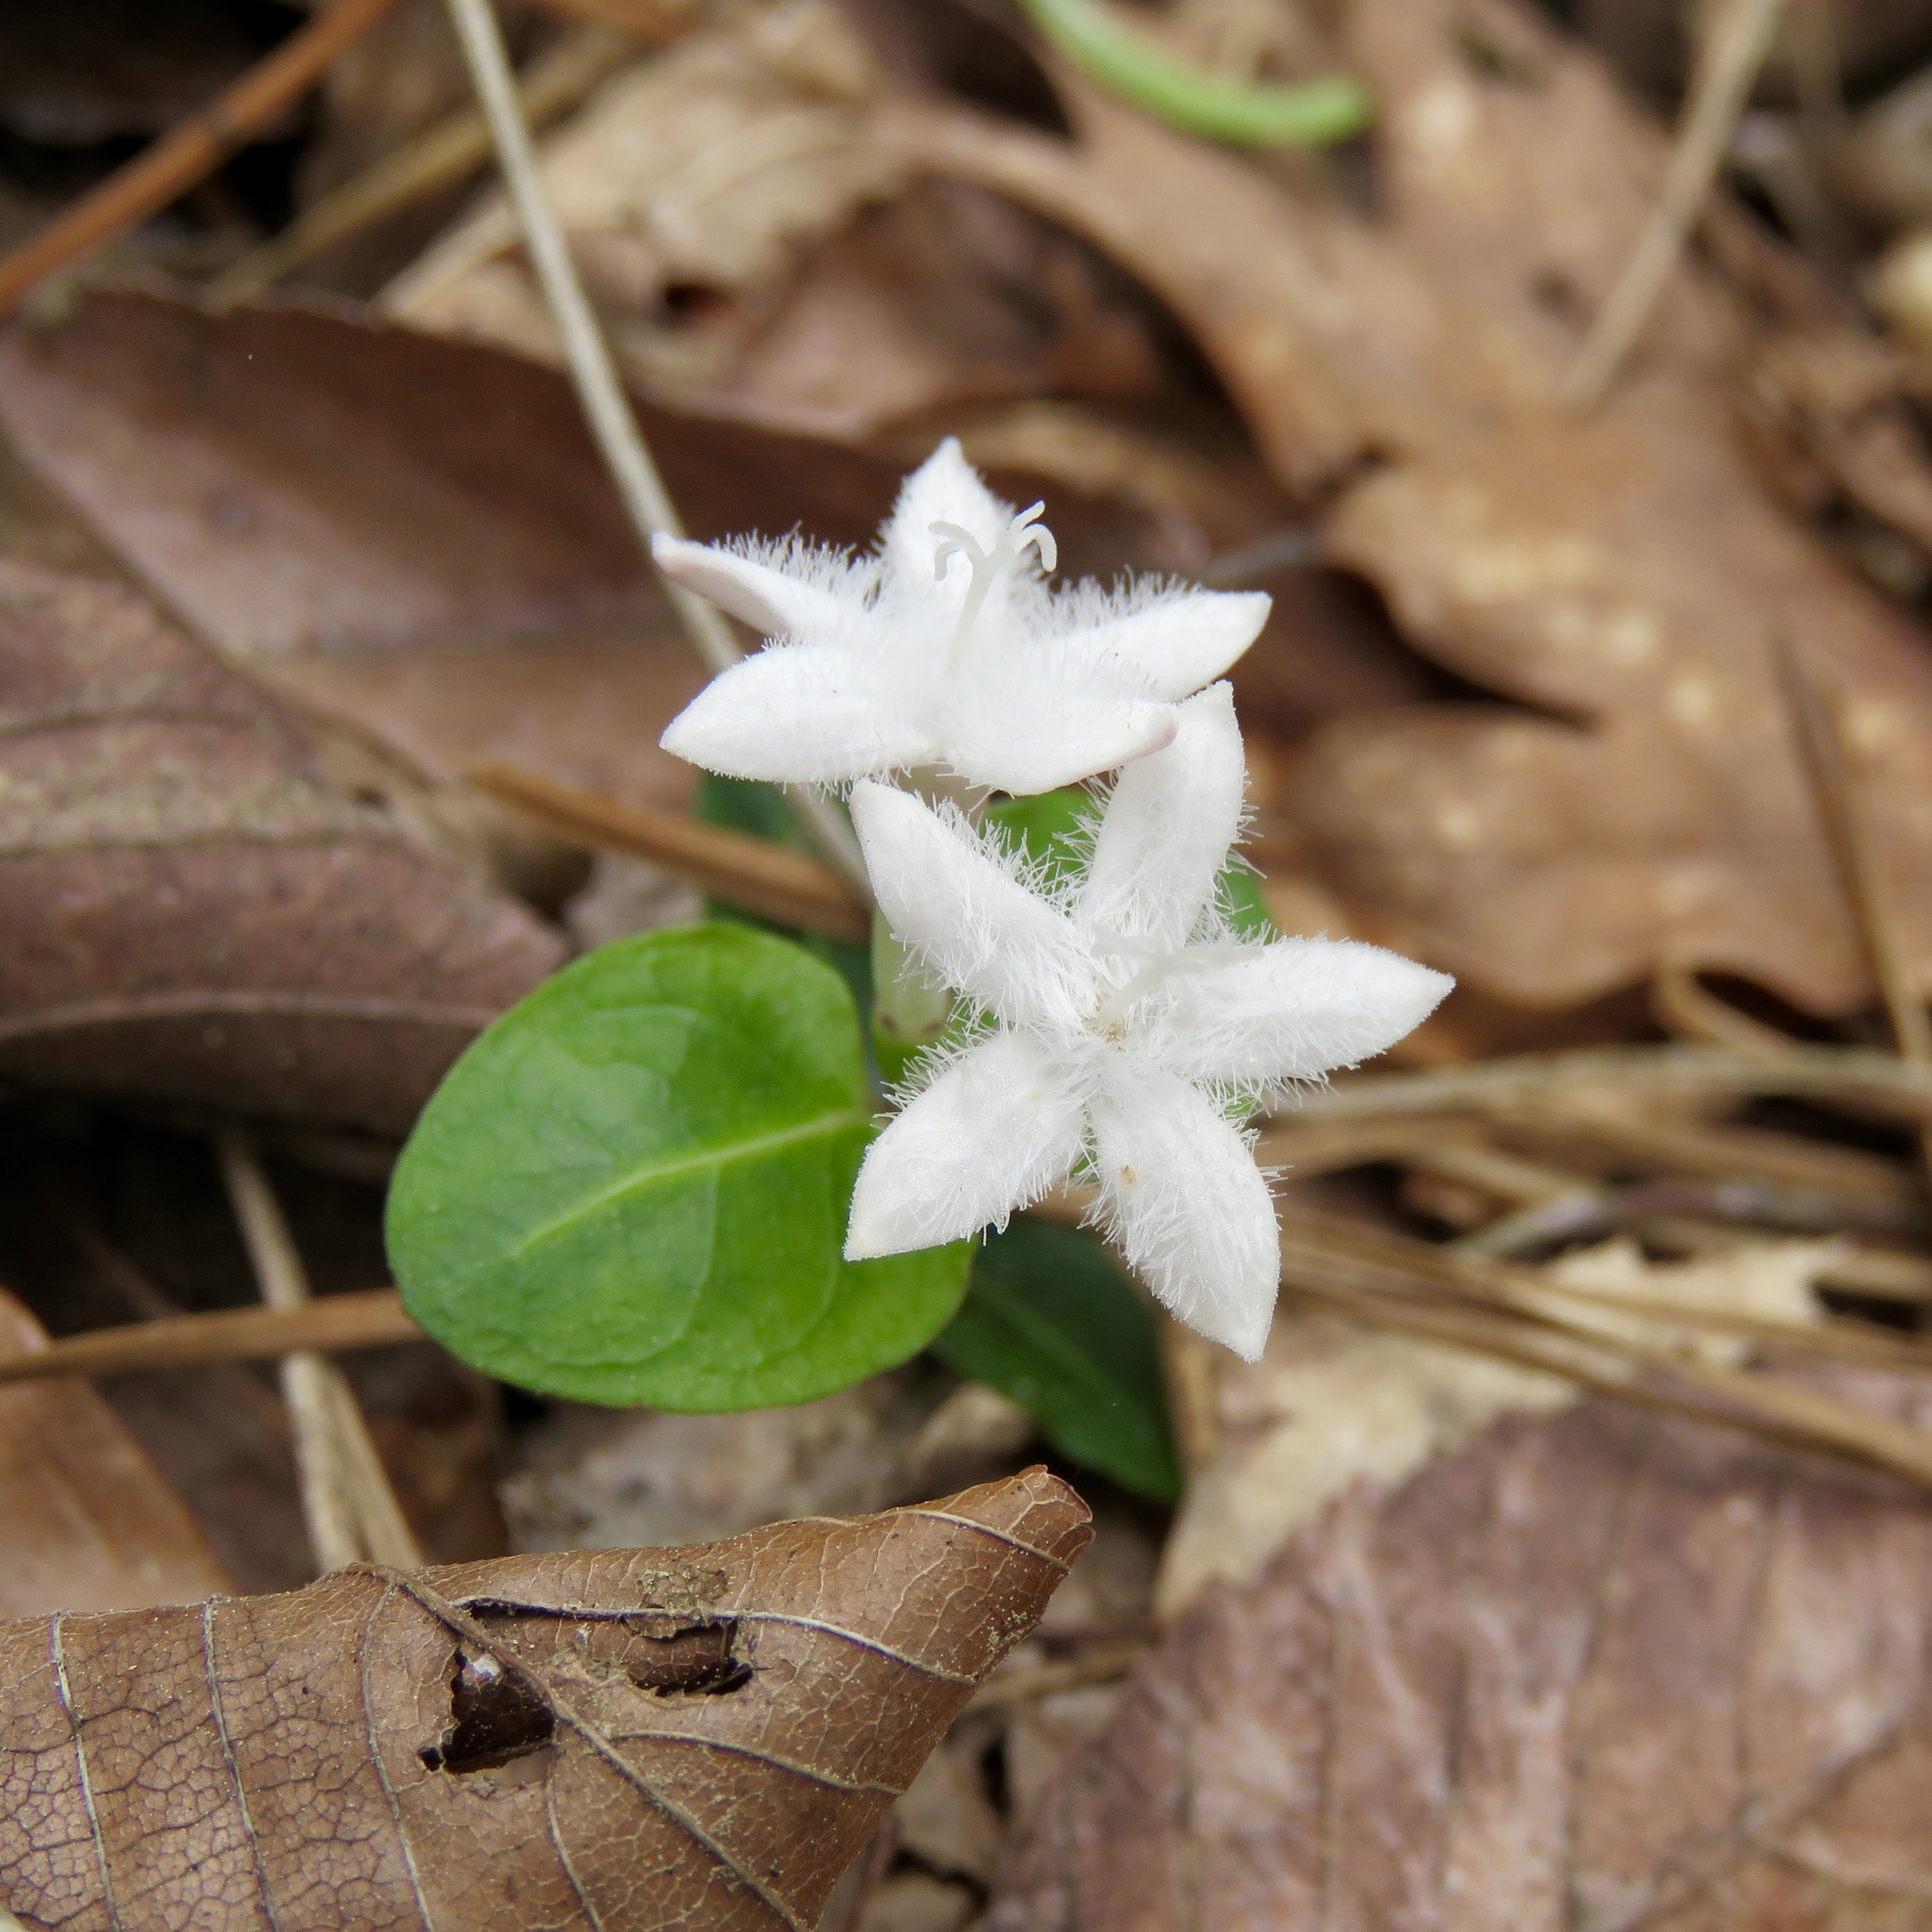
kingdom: Plantae
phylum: Tracheophyta
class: Magnoliopsida
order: Gentianales
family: Rubiaceae
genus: Mitchella
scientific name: Mitchella repens
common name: Partridge-berry
